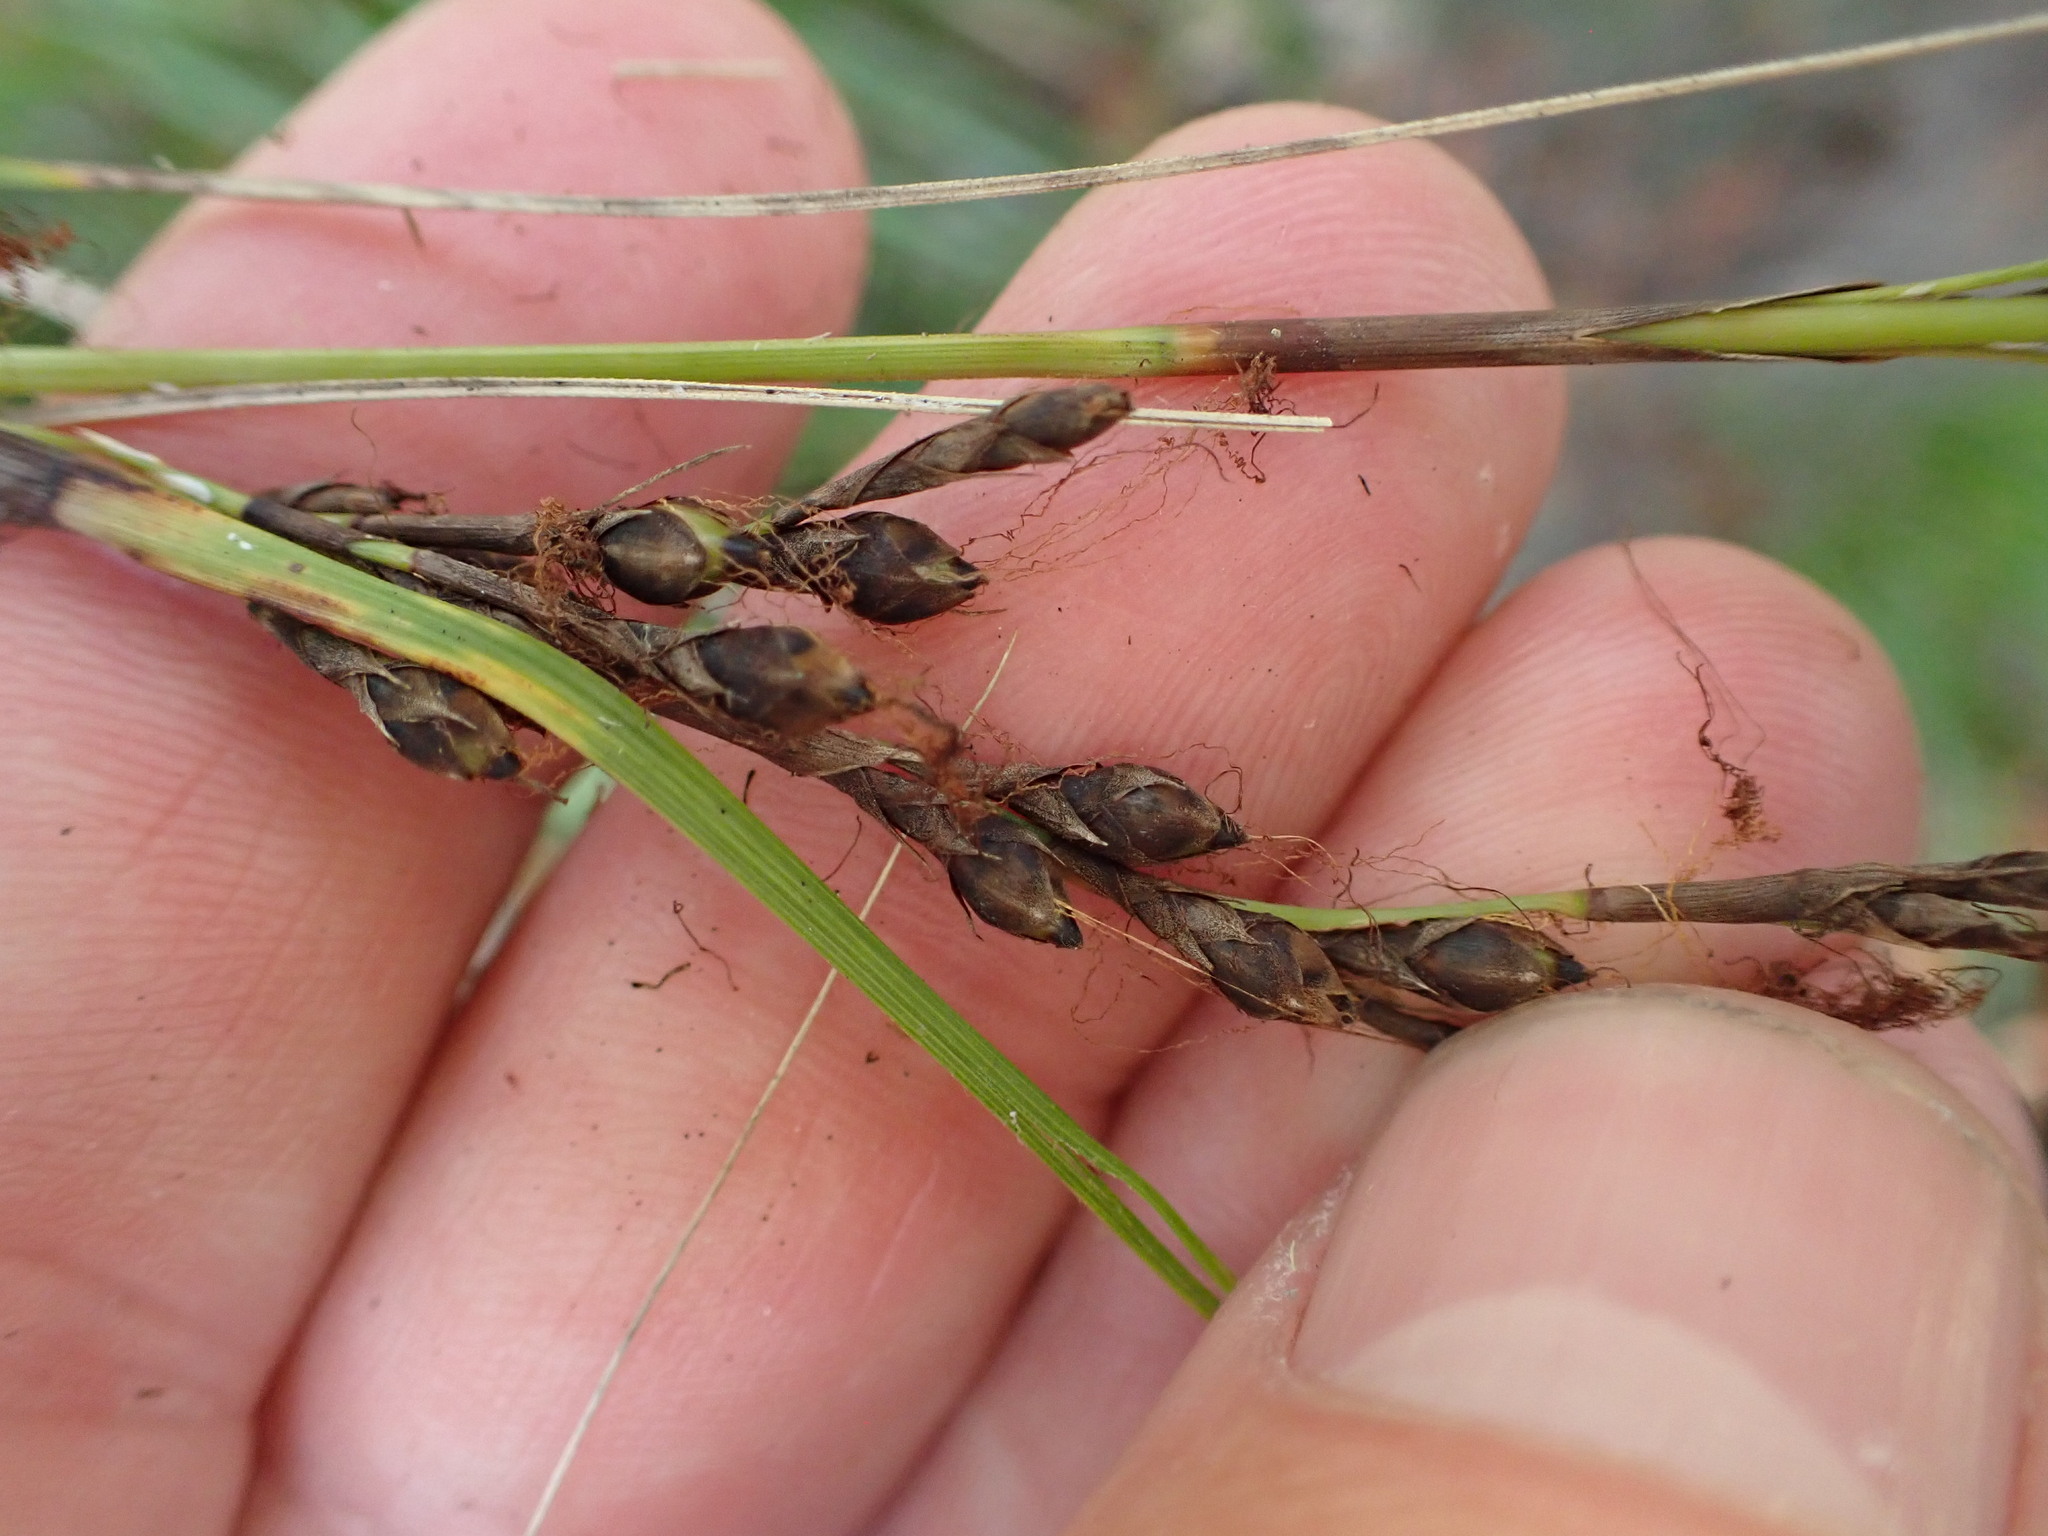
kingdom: Plantae
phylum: Tracheophyta
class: Liliopsida
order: Poales
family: Cyperaceae
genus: Gahnia
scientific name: Gahnia lacera
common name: Sawsedge
